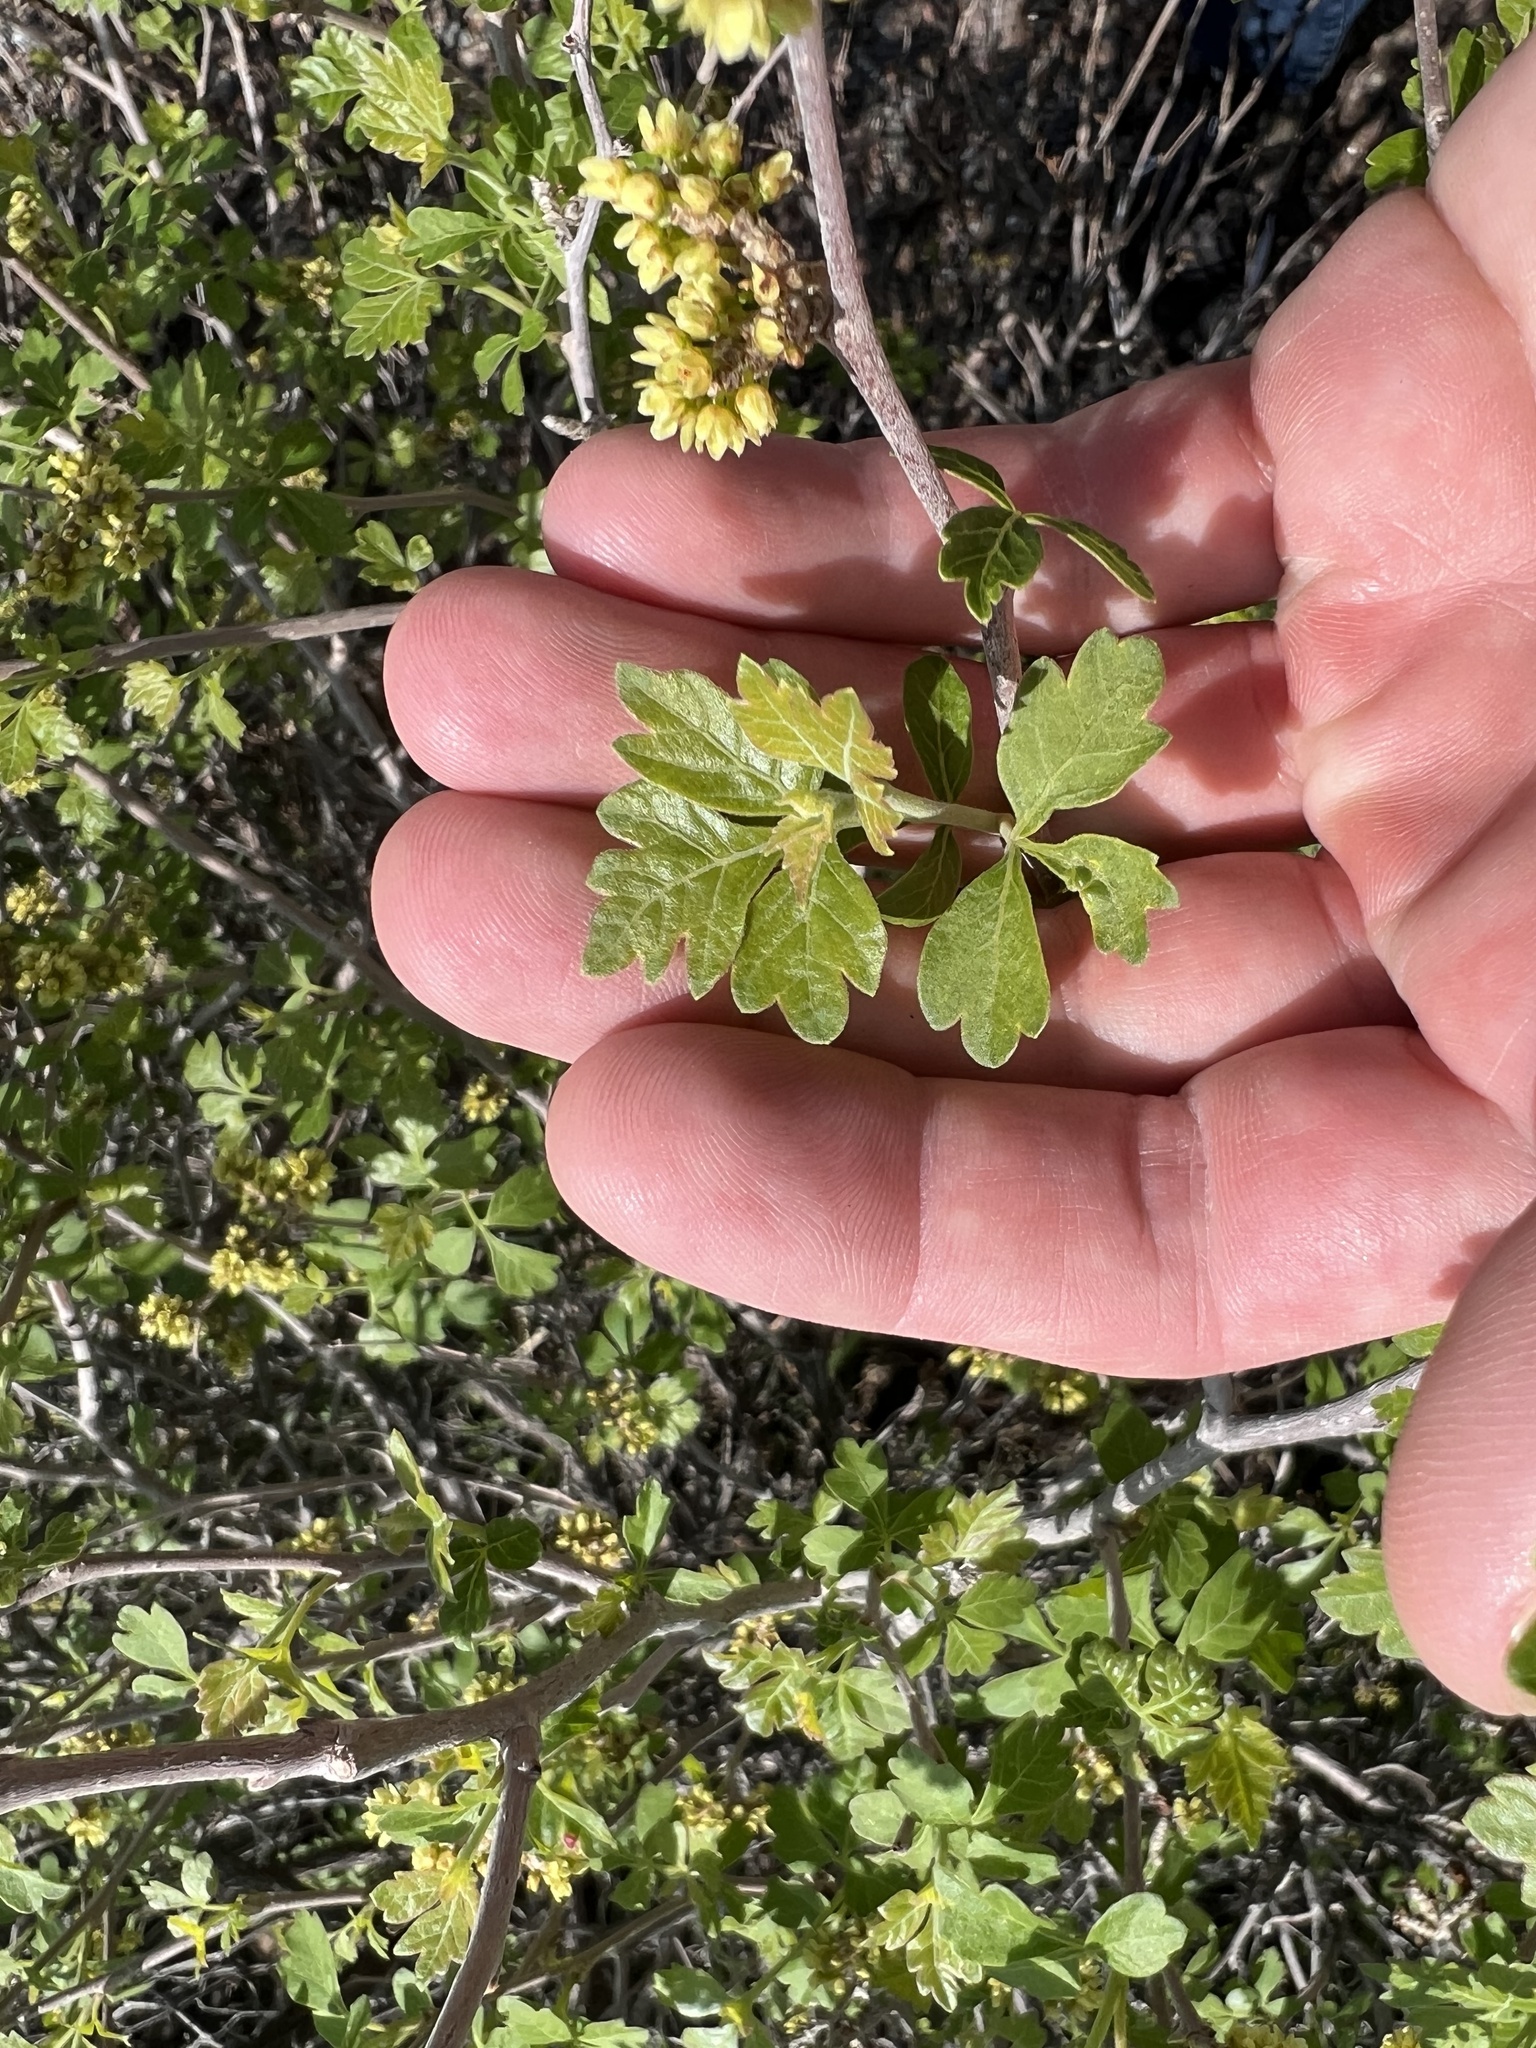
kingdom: Plantae
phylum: Tracheophyta
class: Magnoliopsida
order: Sapindales
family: Anacardiaceae
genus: Rhus
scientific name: Rhus trilobata
